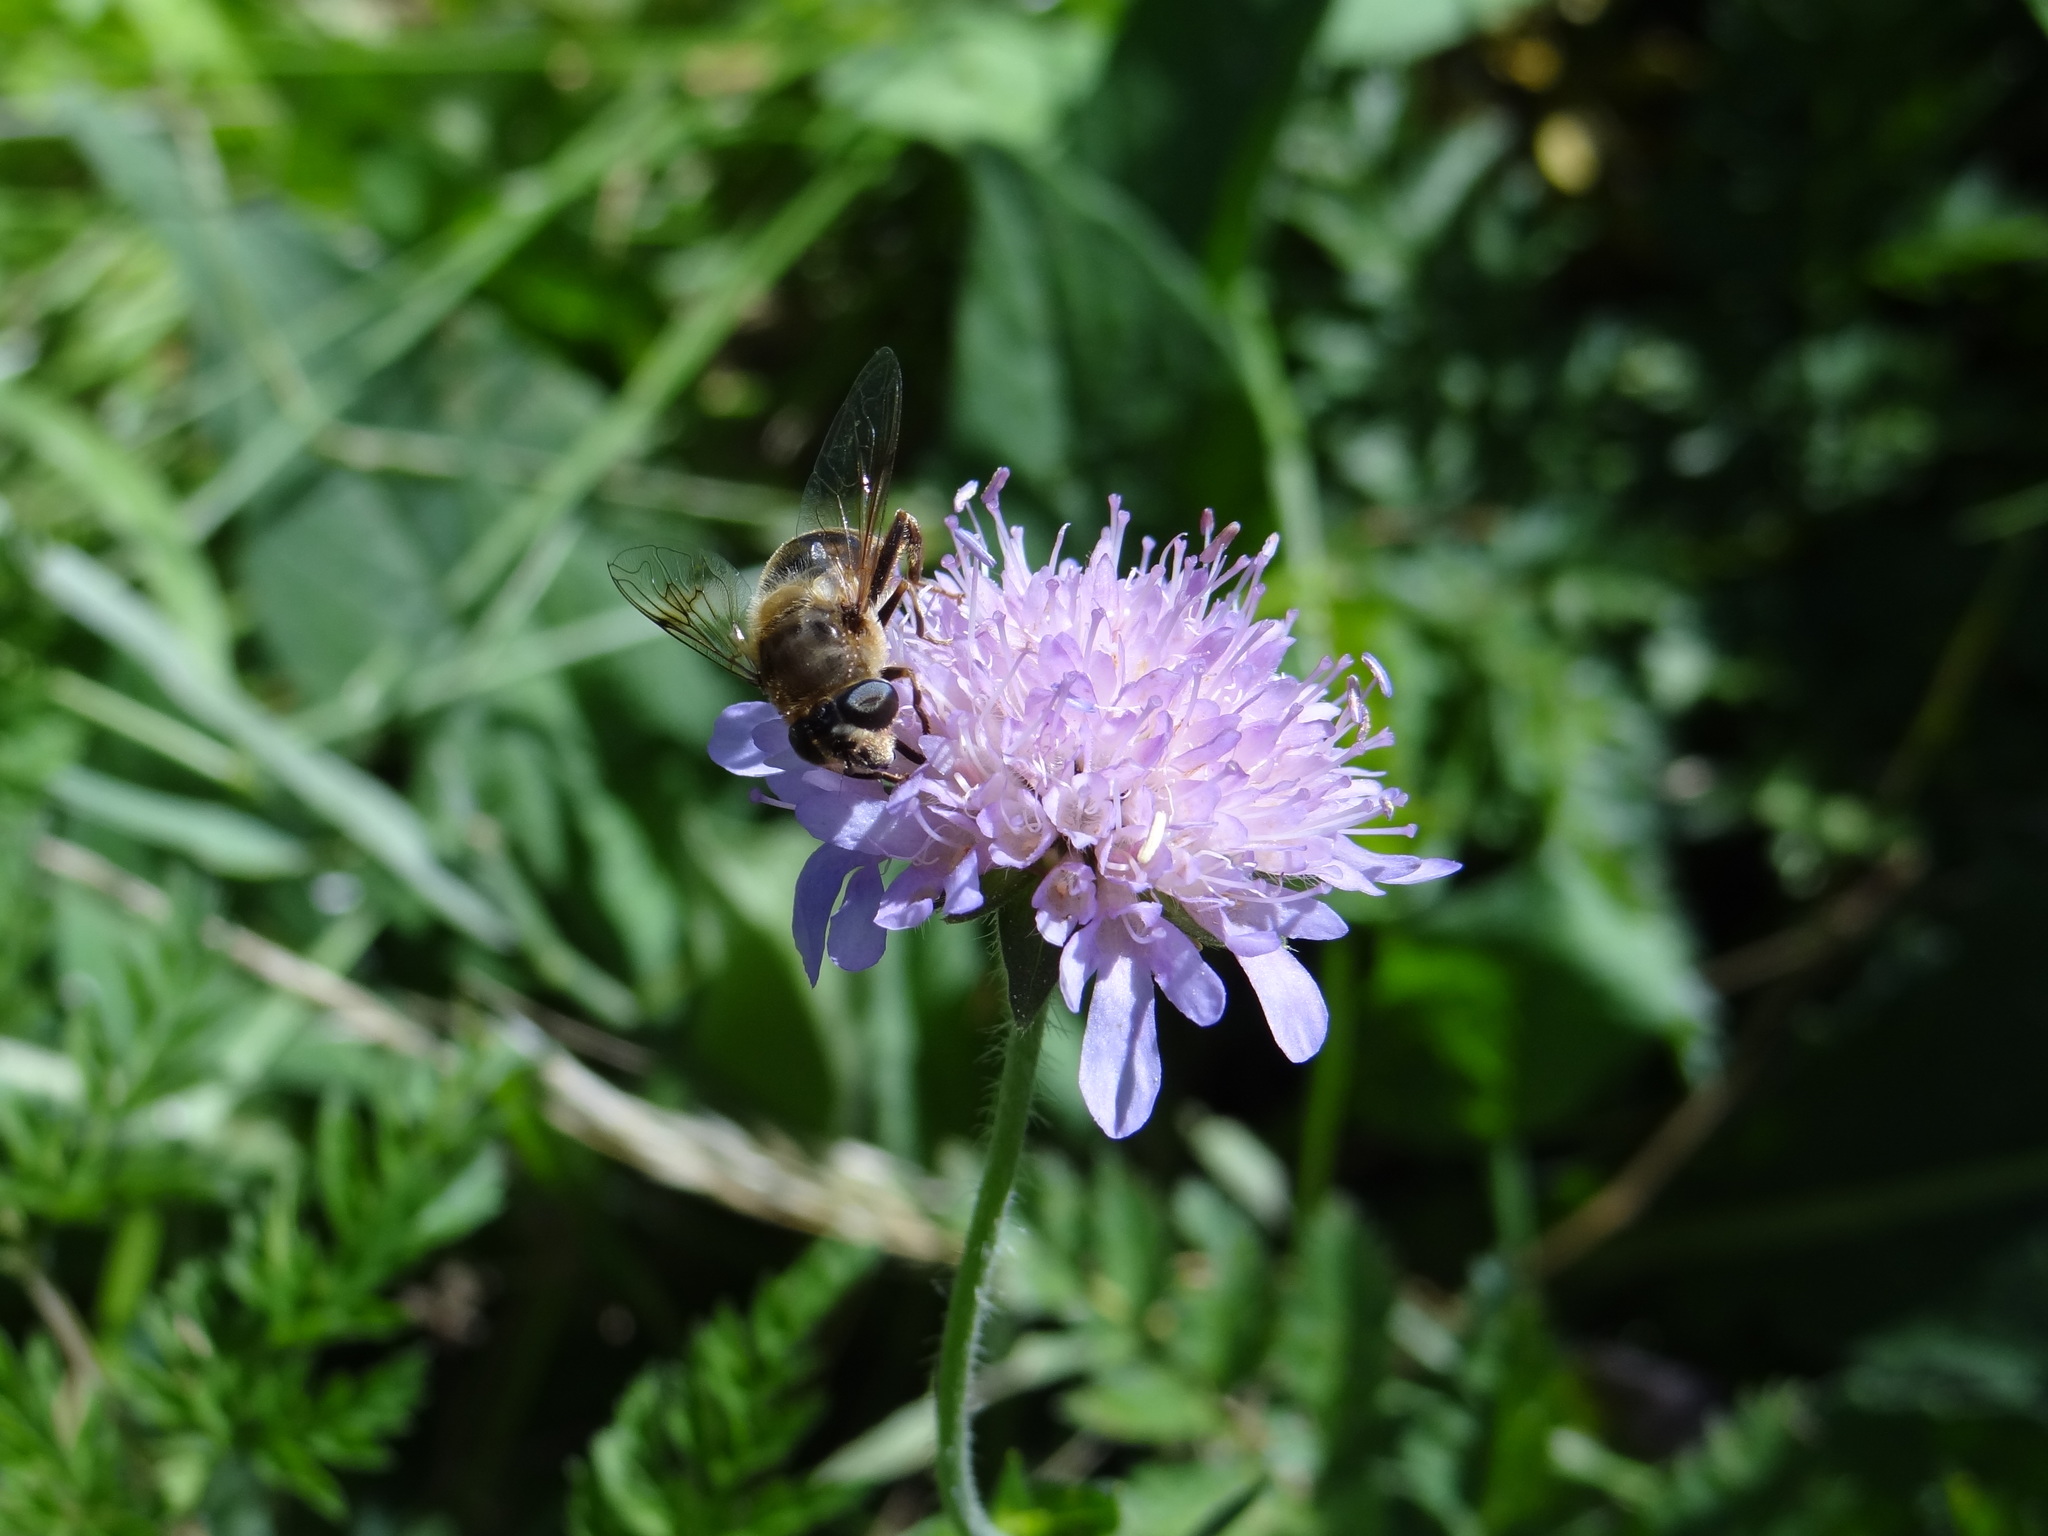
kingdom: Animalia
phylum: Arthropoda
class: Insecta
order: Diptera
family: Syrphidae
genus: Eristalis
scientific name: Eristalis tenax
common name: Drone fly
